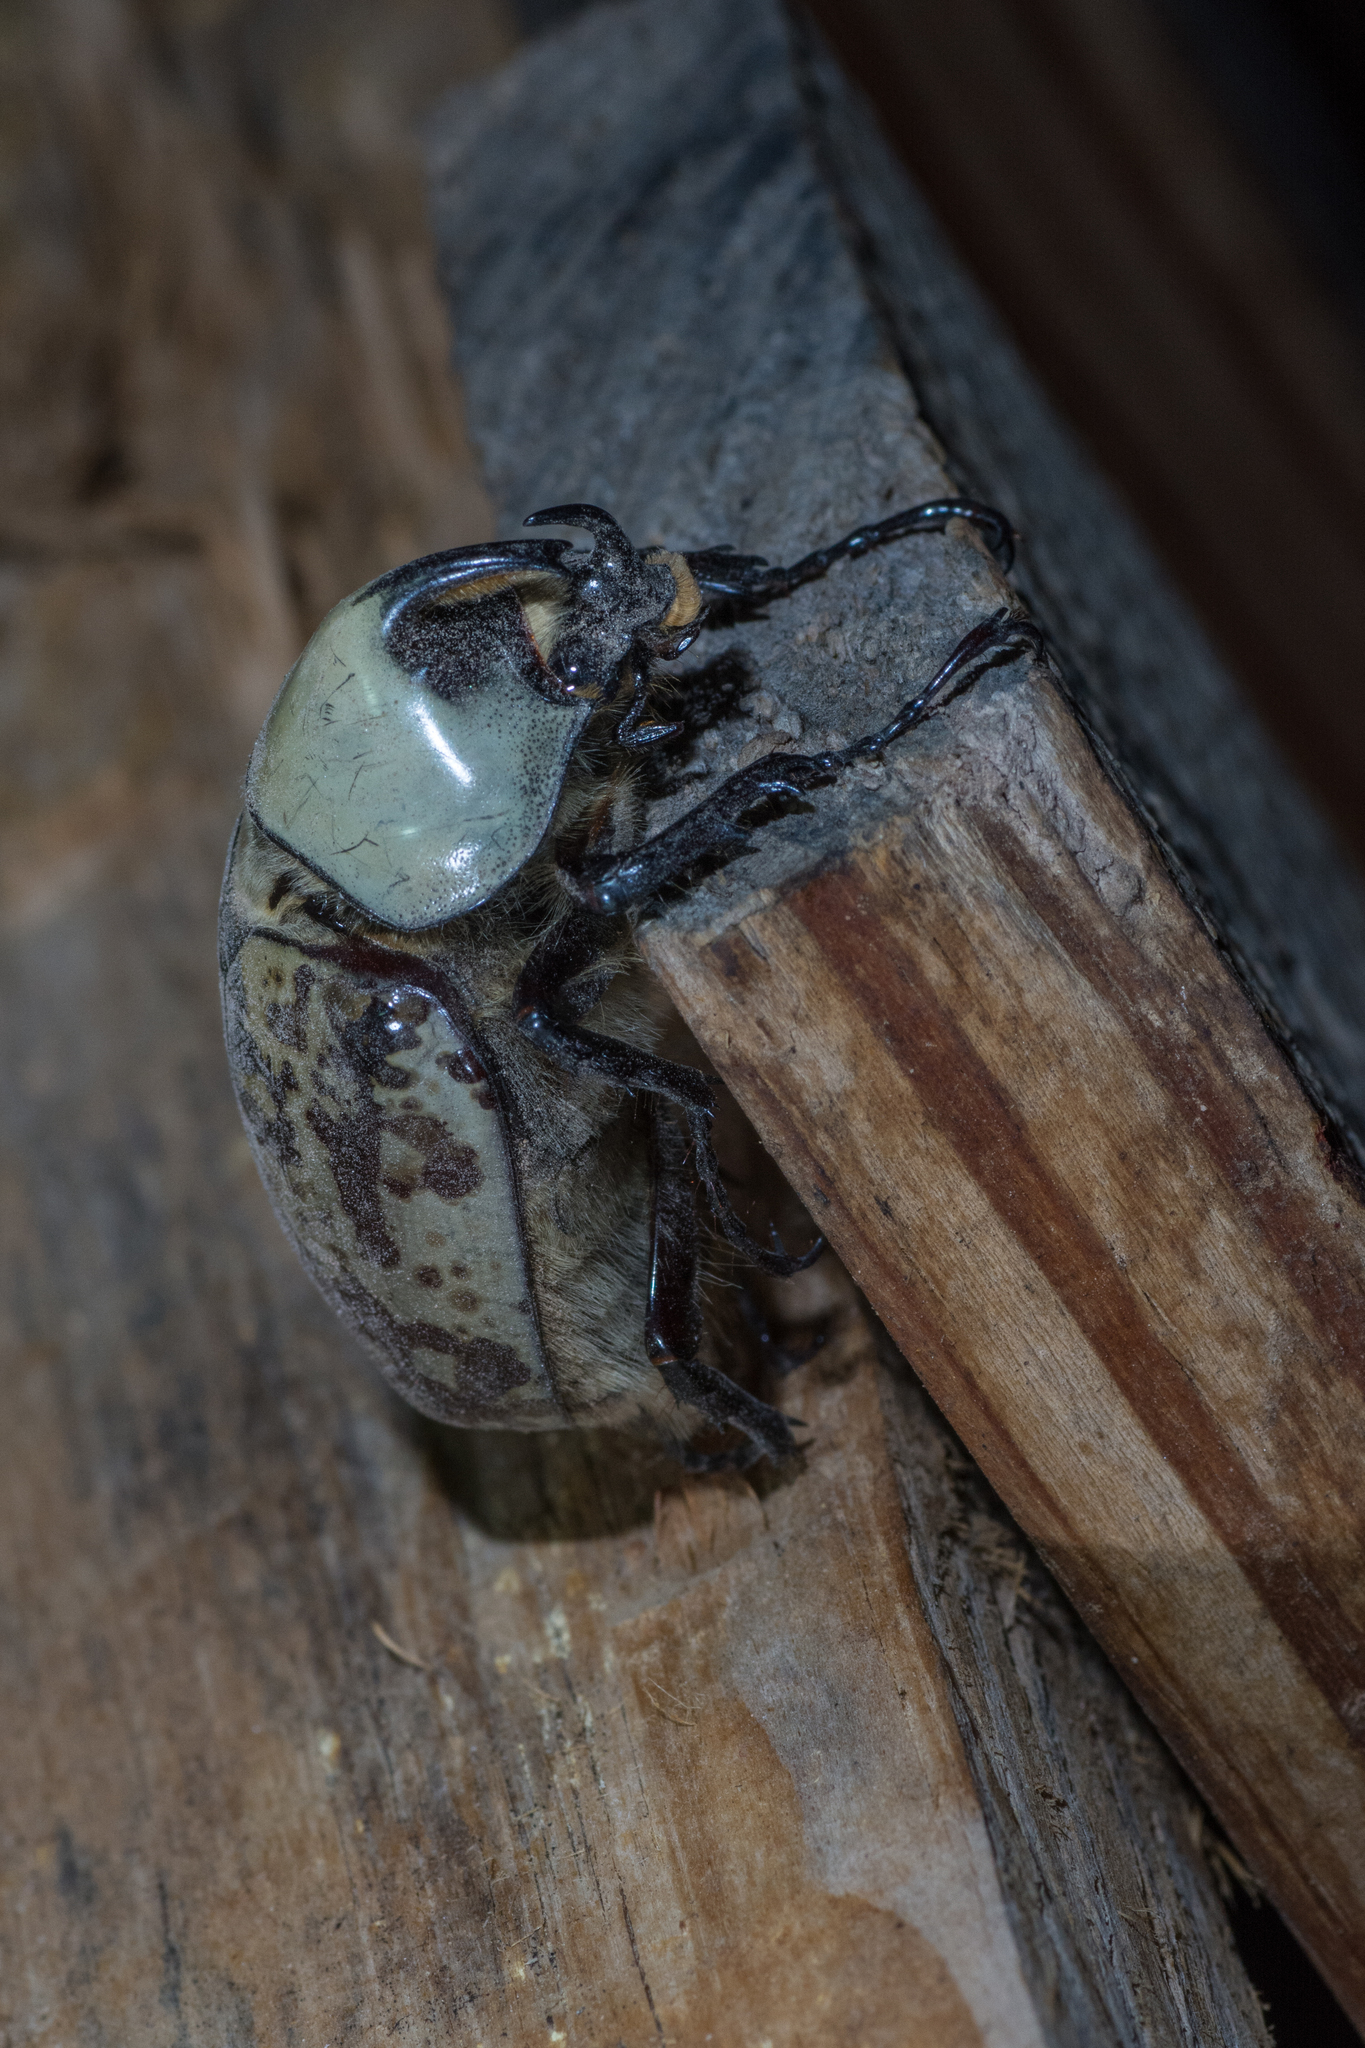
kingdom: Animalia
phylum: Arthropoda
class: Insecta
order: Coleoptera
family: Scarabaeidae
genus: Dynastes
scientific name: Dynastes grantii
